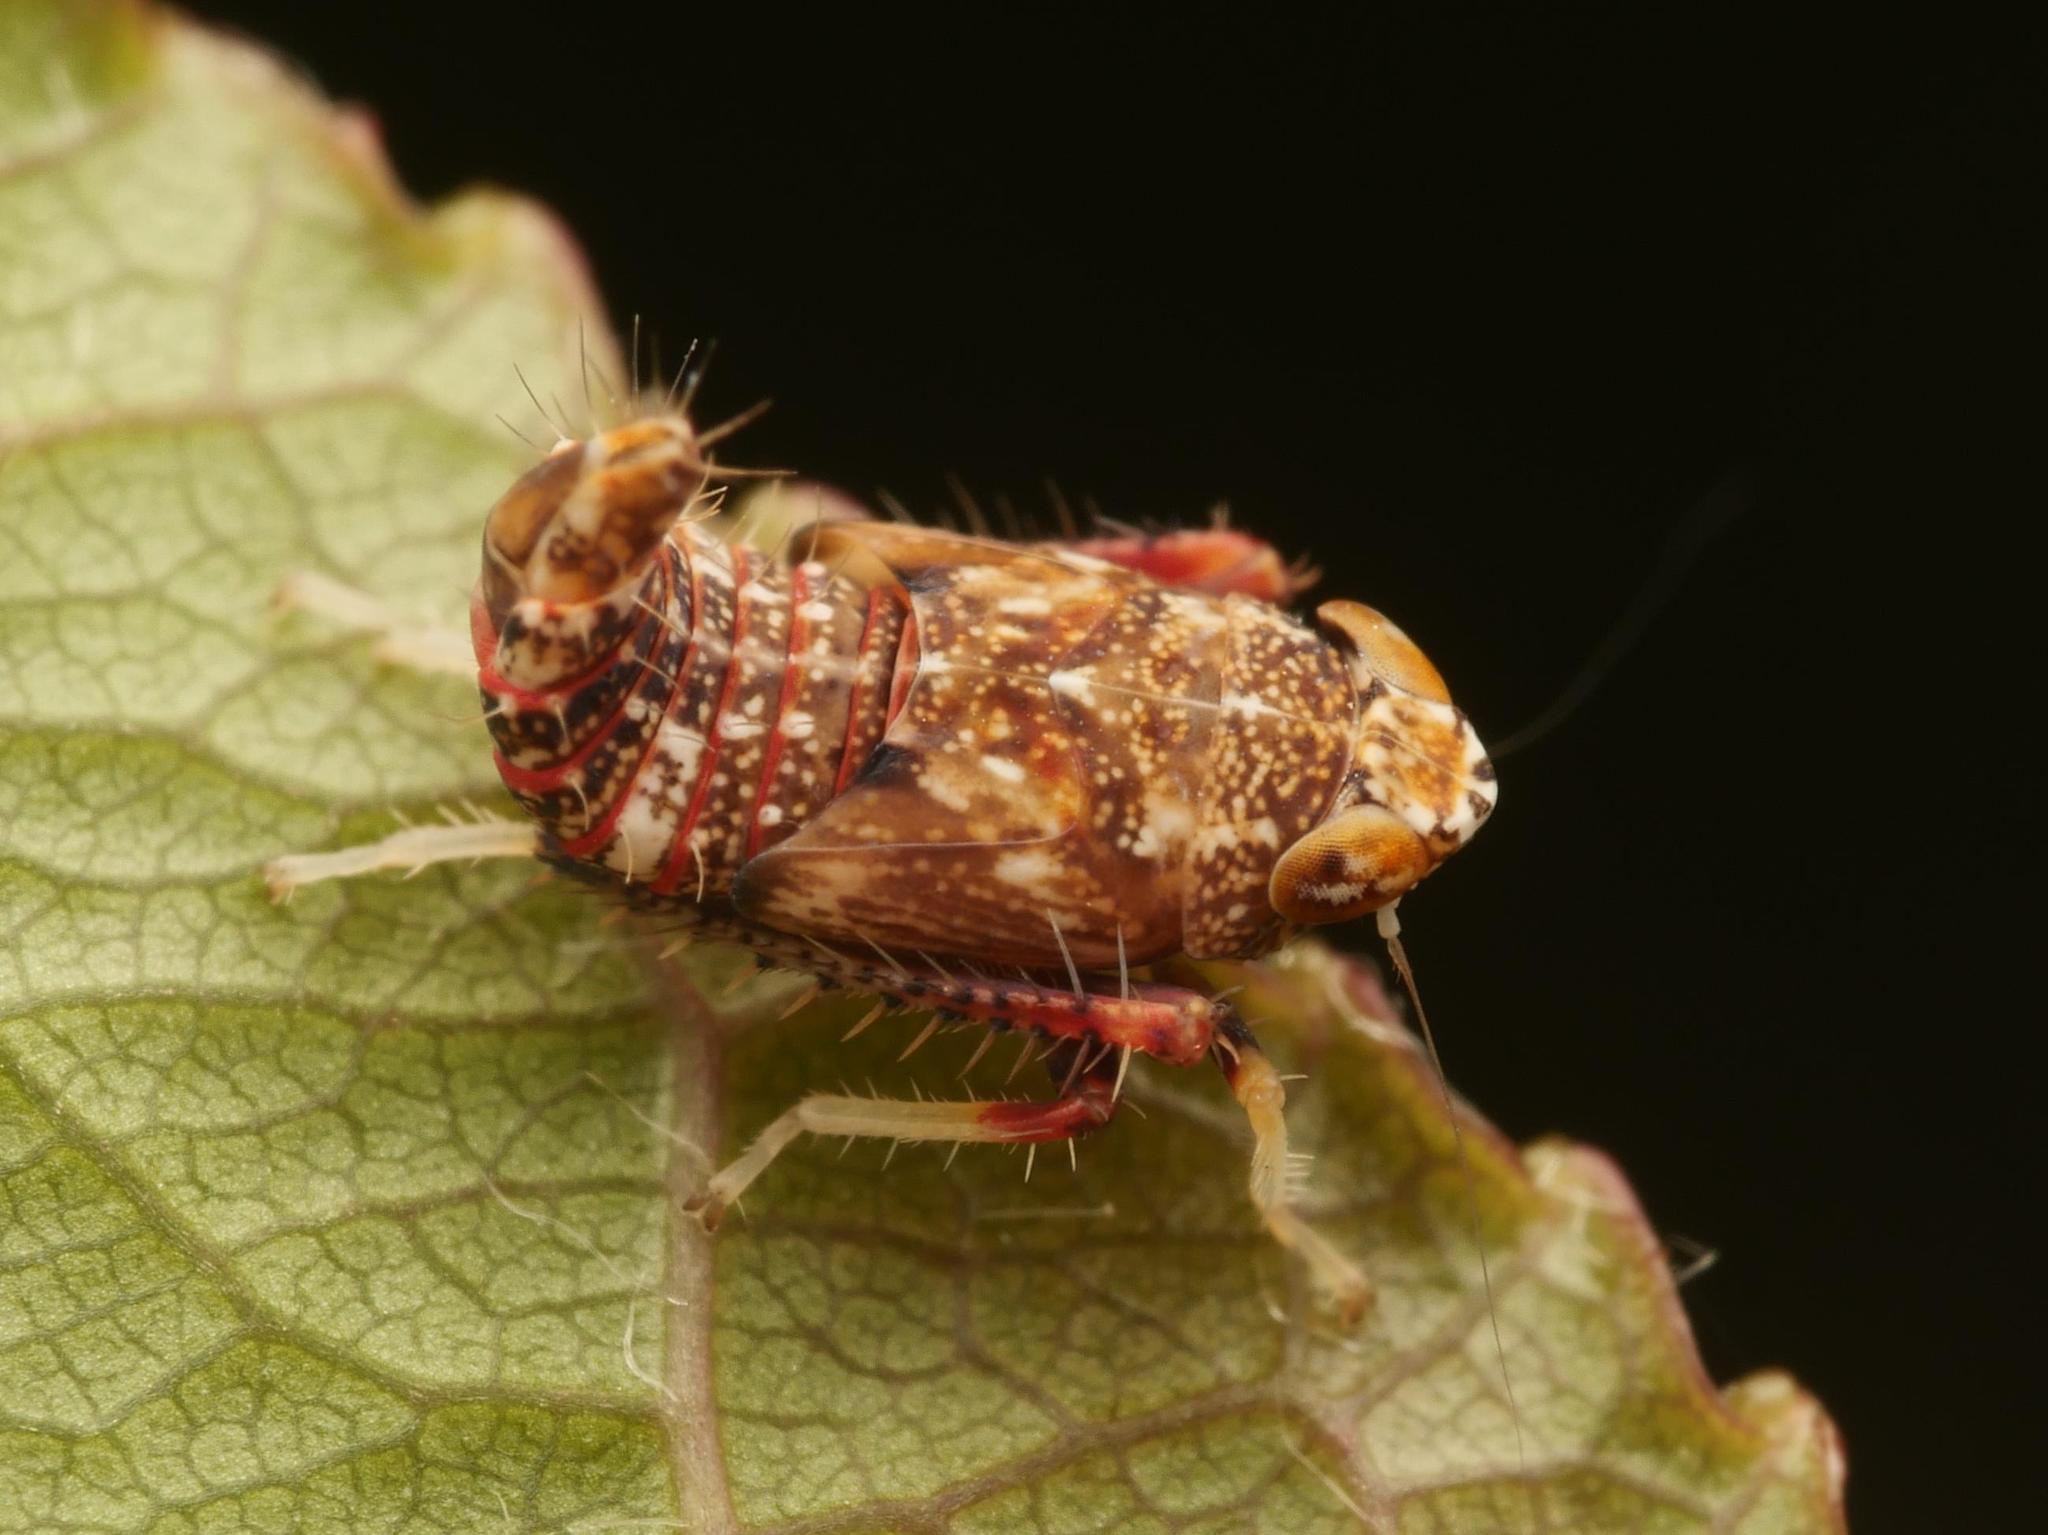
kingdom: Animalia
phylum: Arthropoda
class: Insecta
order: Hemiptera
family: Cicadellidae
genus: Orientus
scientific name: Orientus ishidae
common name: Japanese leafhopper
